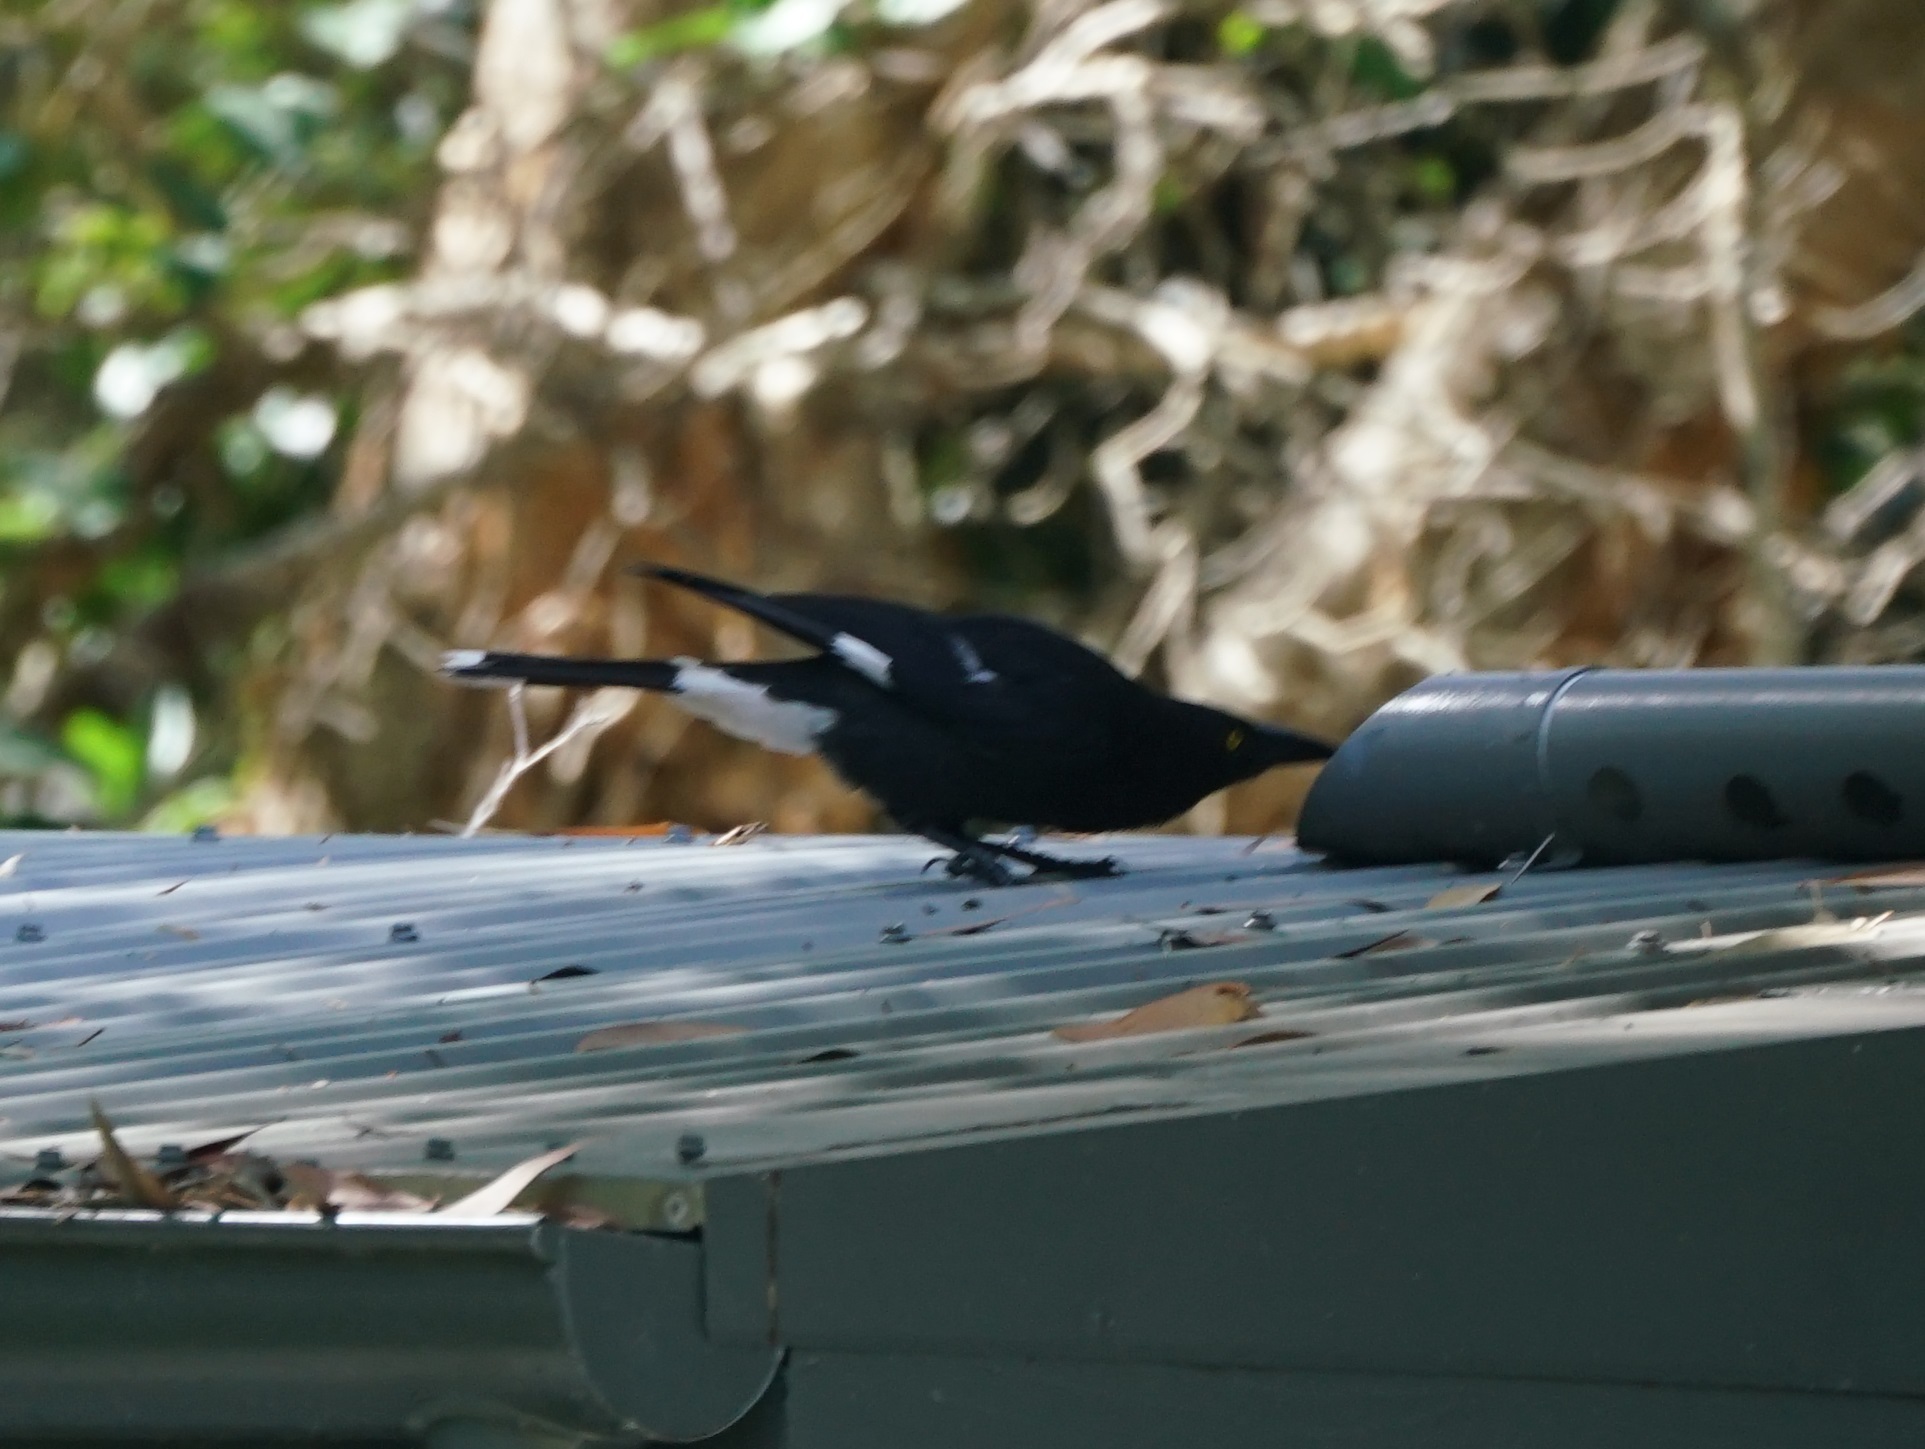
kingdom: Animalia
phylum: Chordata
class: Aves
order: Passeriformes
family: Cracticidae
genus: Strepera
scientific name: Strepera graculina
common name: Pied currawong
